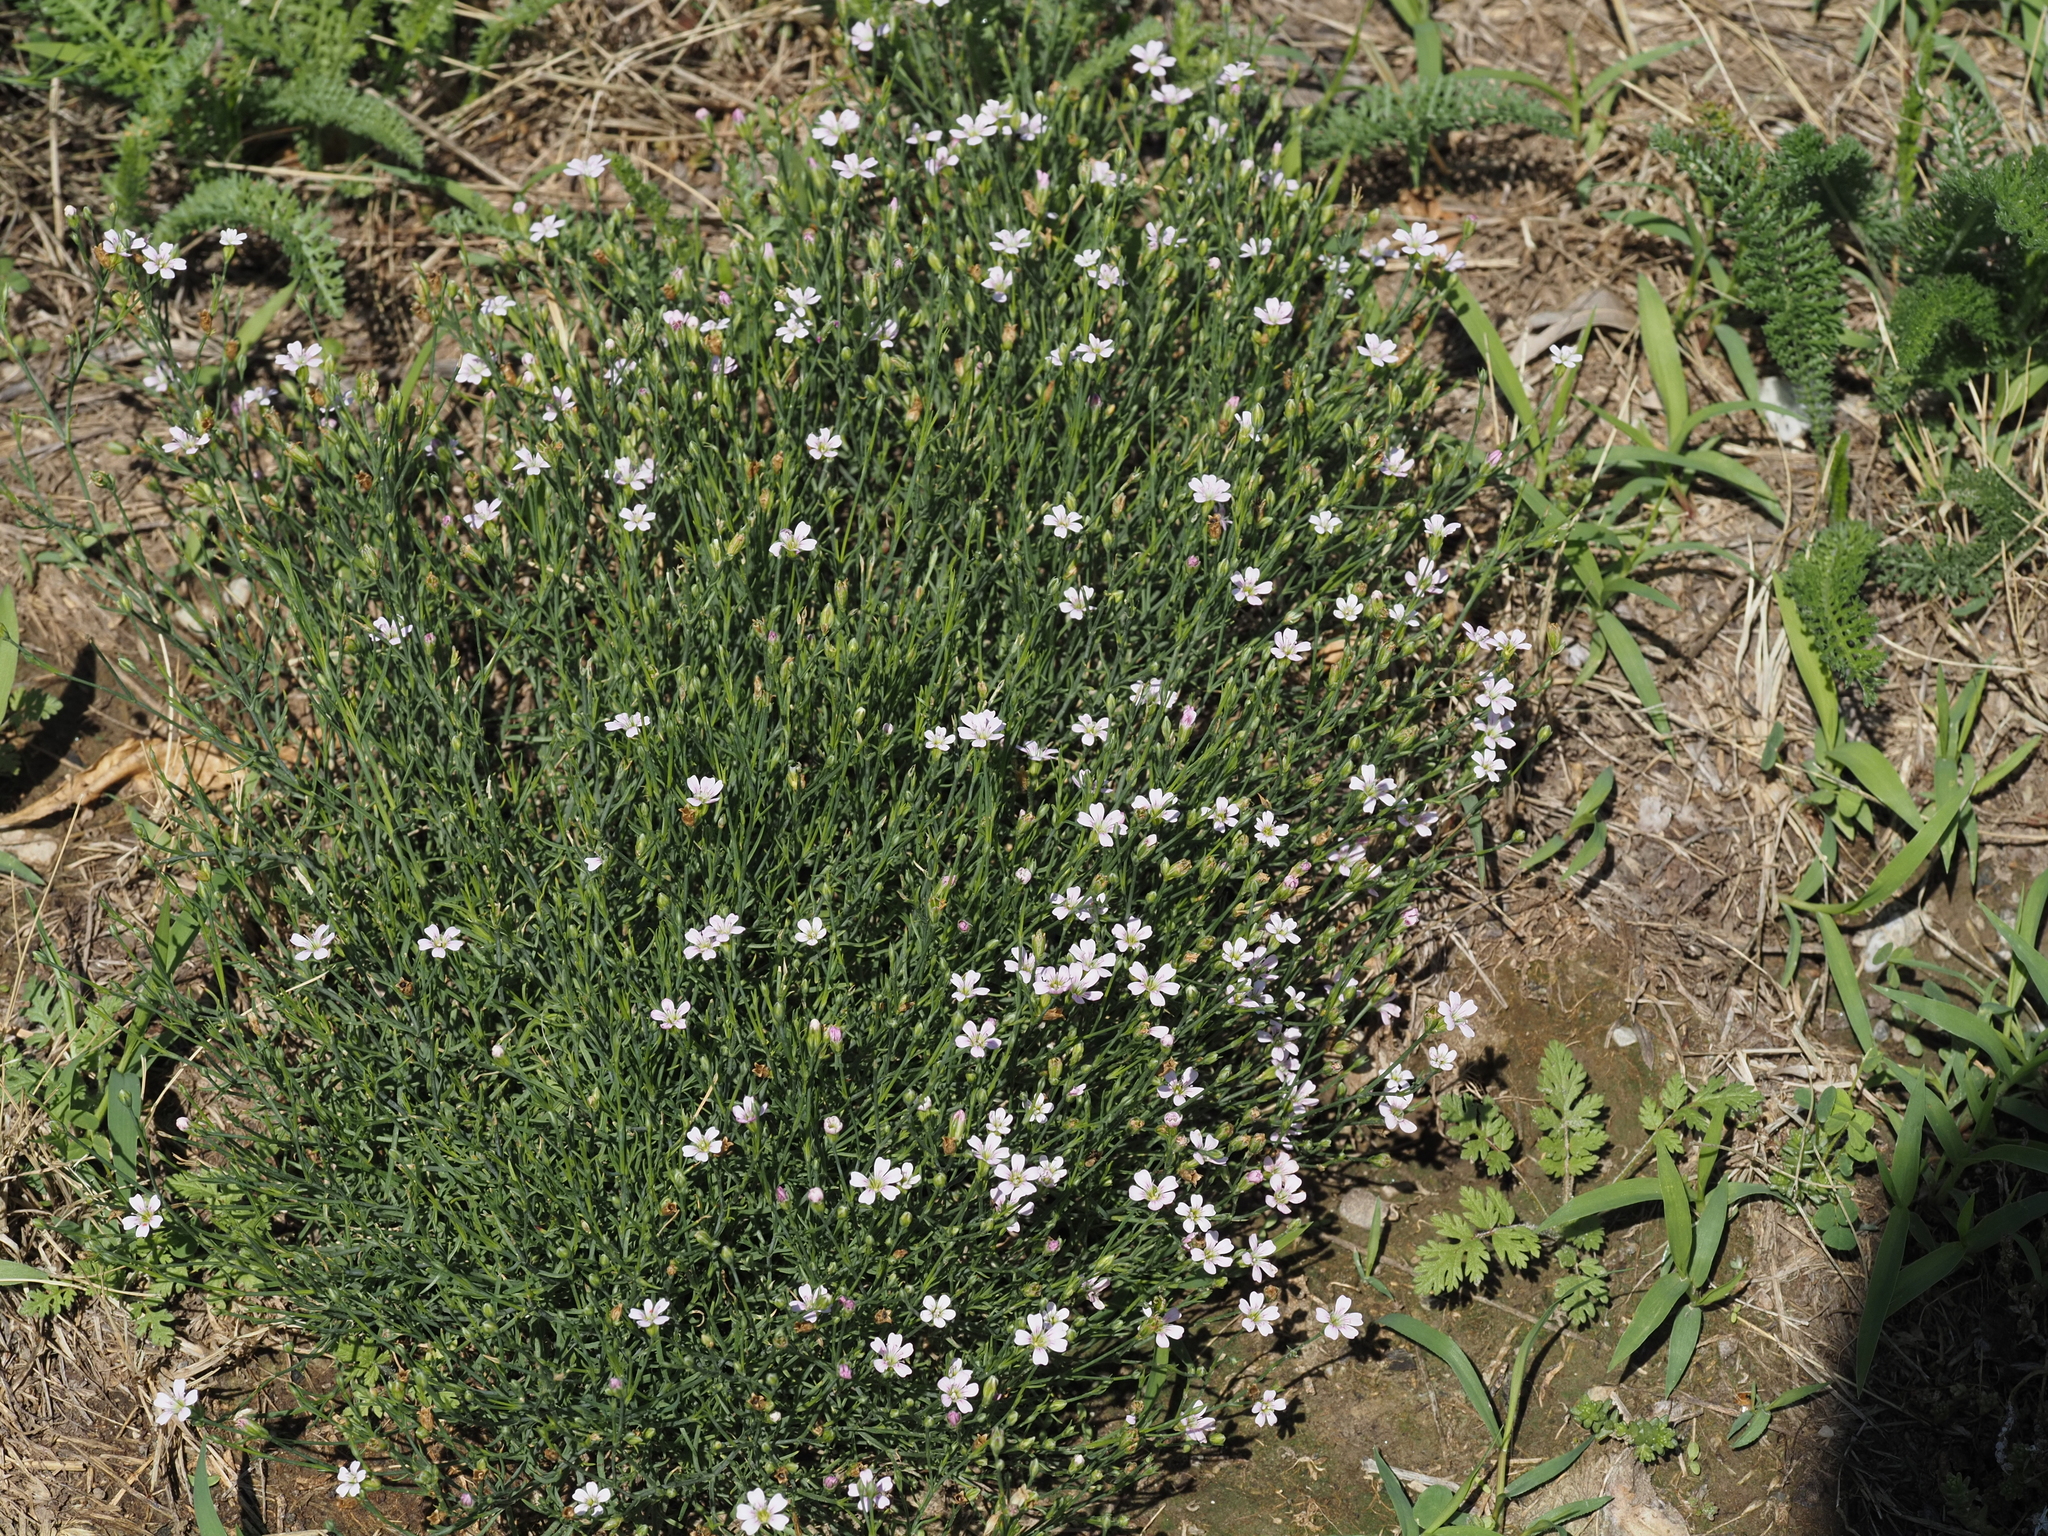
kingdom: Plantae
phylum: Tracheophyta
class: Magnoliopsida
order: Caryophyllales
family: Caryophyllaceae
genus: Petrorhagia
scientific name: Petrorhagia saxifraga
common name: Tunicflower
